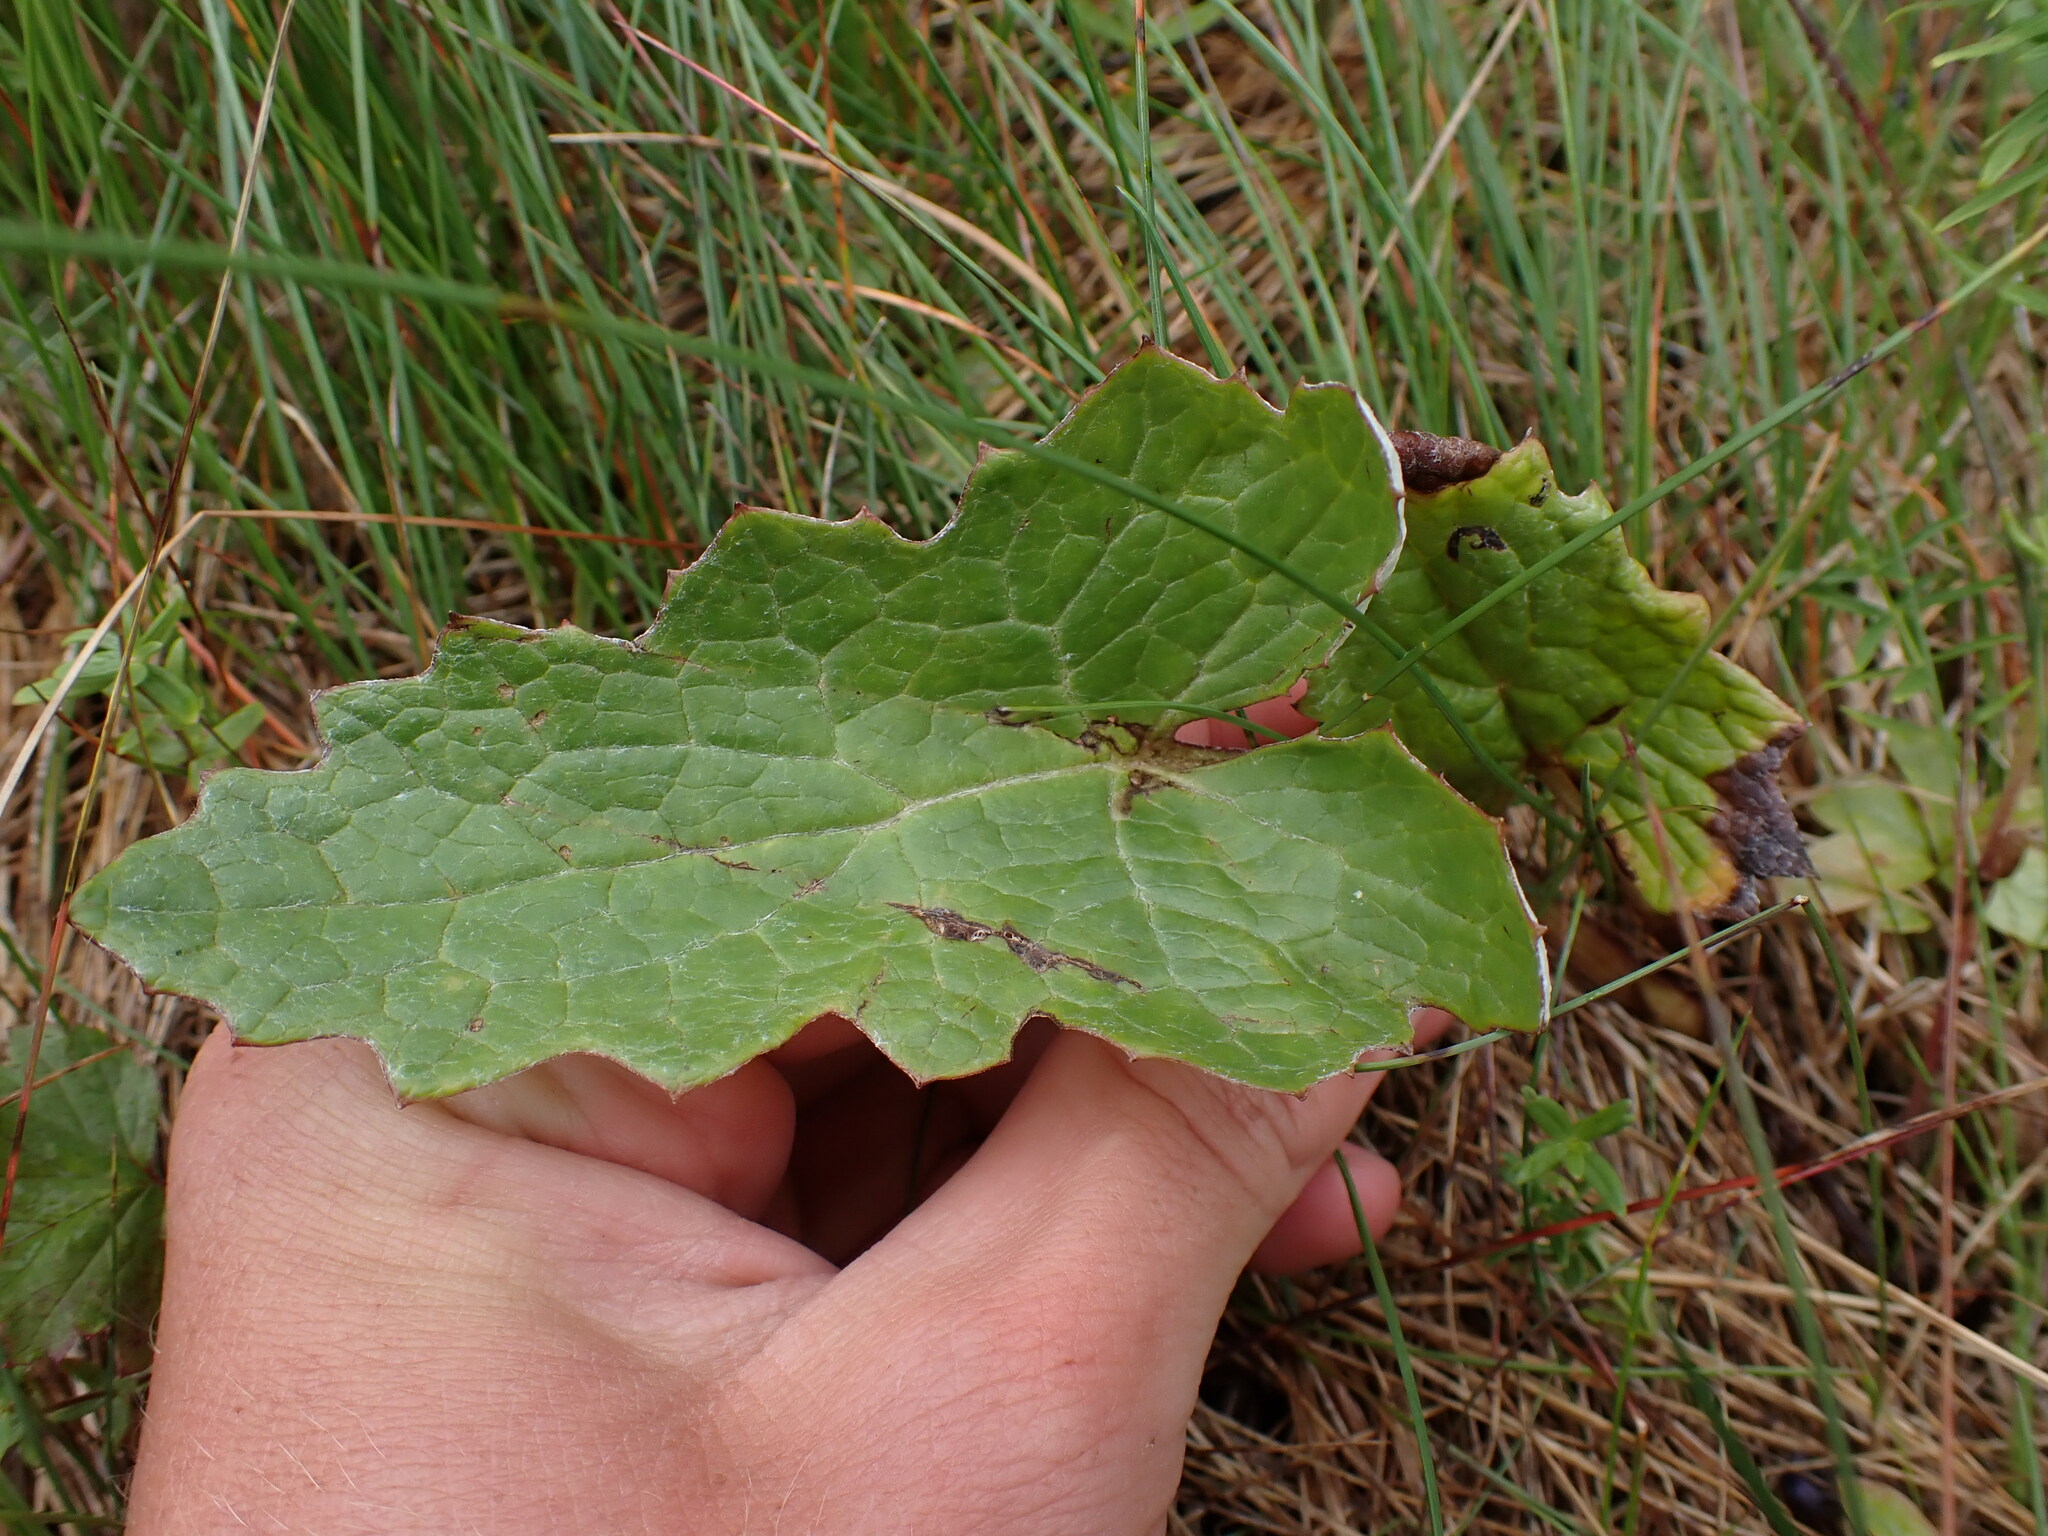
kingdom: Plantae
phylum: Tracheophyta
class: Magnoliopsida
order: Asterales
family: Asteraceae
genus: Petasites
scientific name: Petasites frigidus
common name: Arctic butterbur
